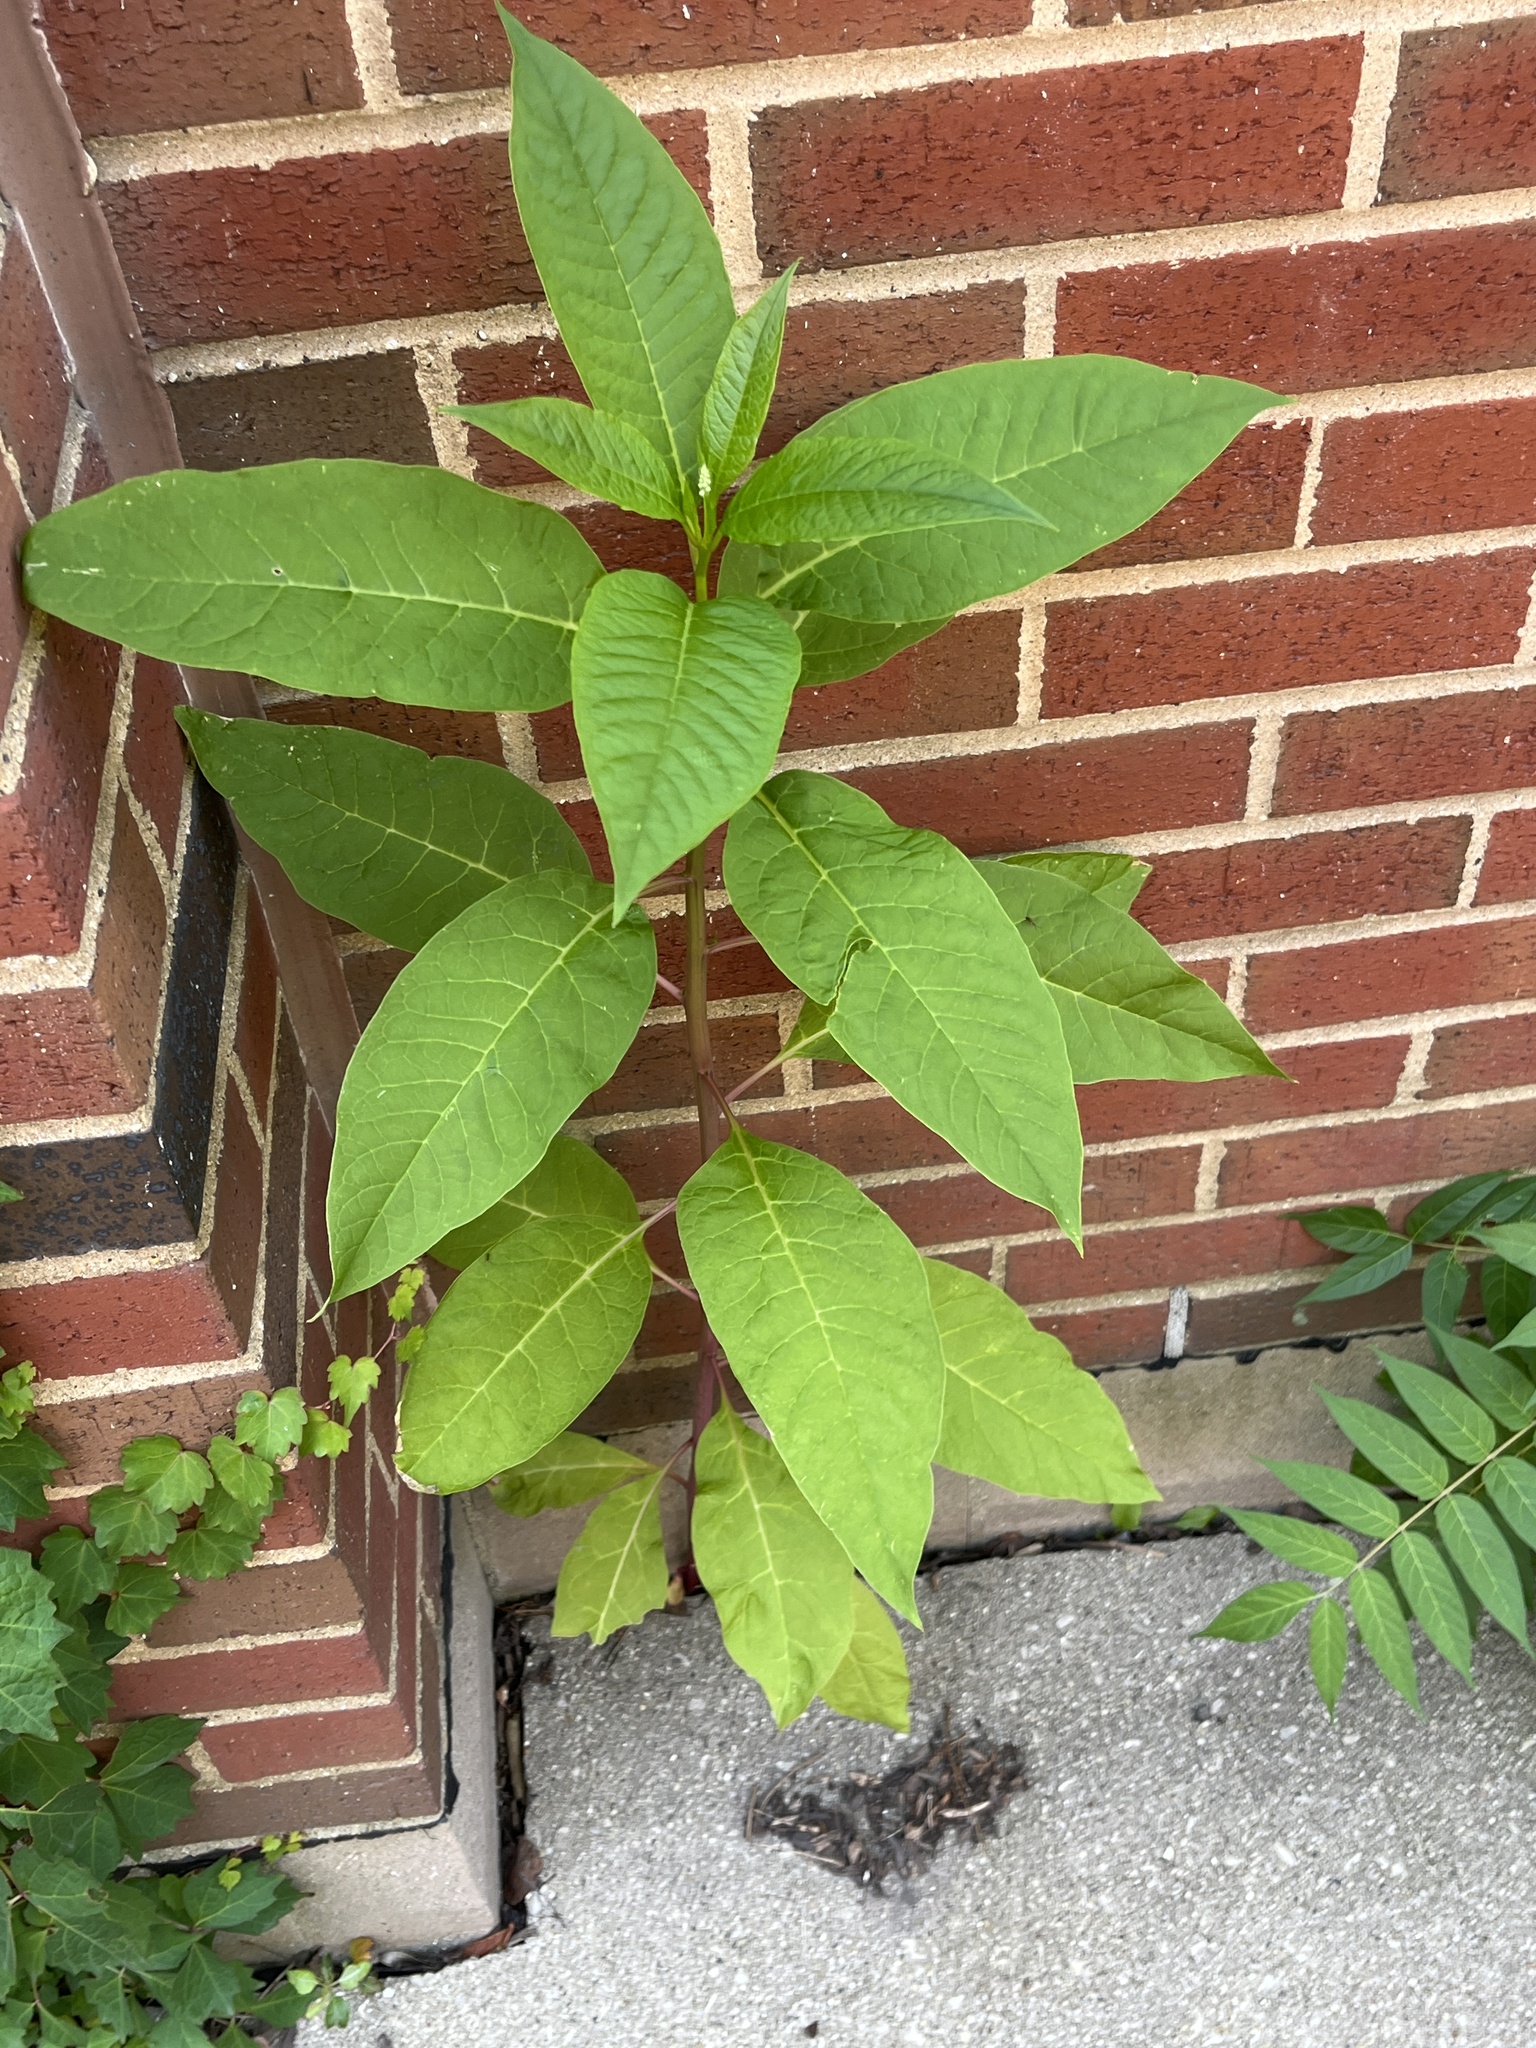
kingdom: Plantae
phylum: Tracheophyta
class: Magnoliopsida
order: Caryophyllales
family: Phytolaccaceae
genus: Phytolacca
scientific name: Phytolacca americana
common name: American pokeweed
